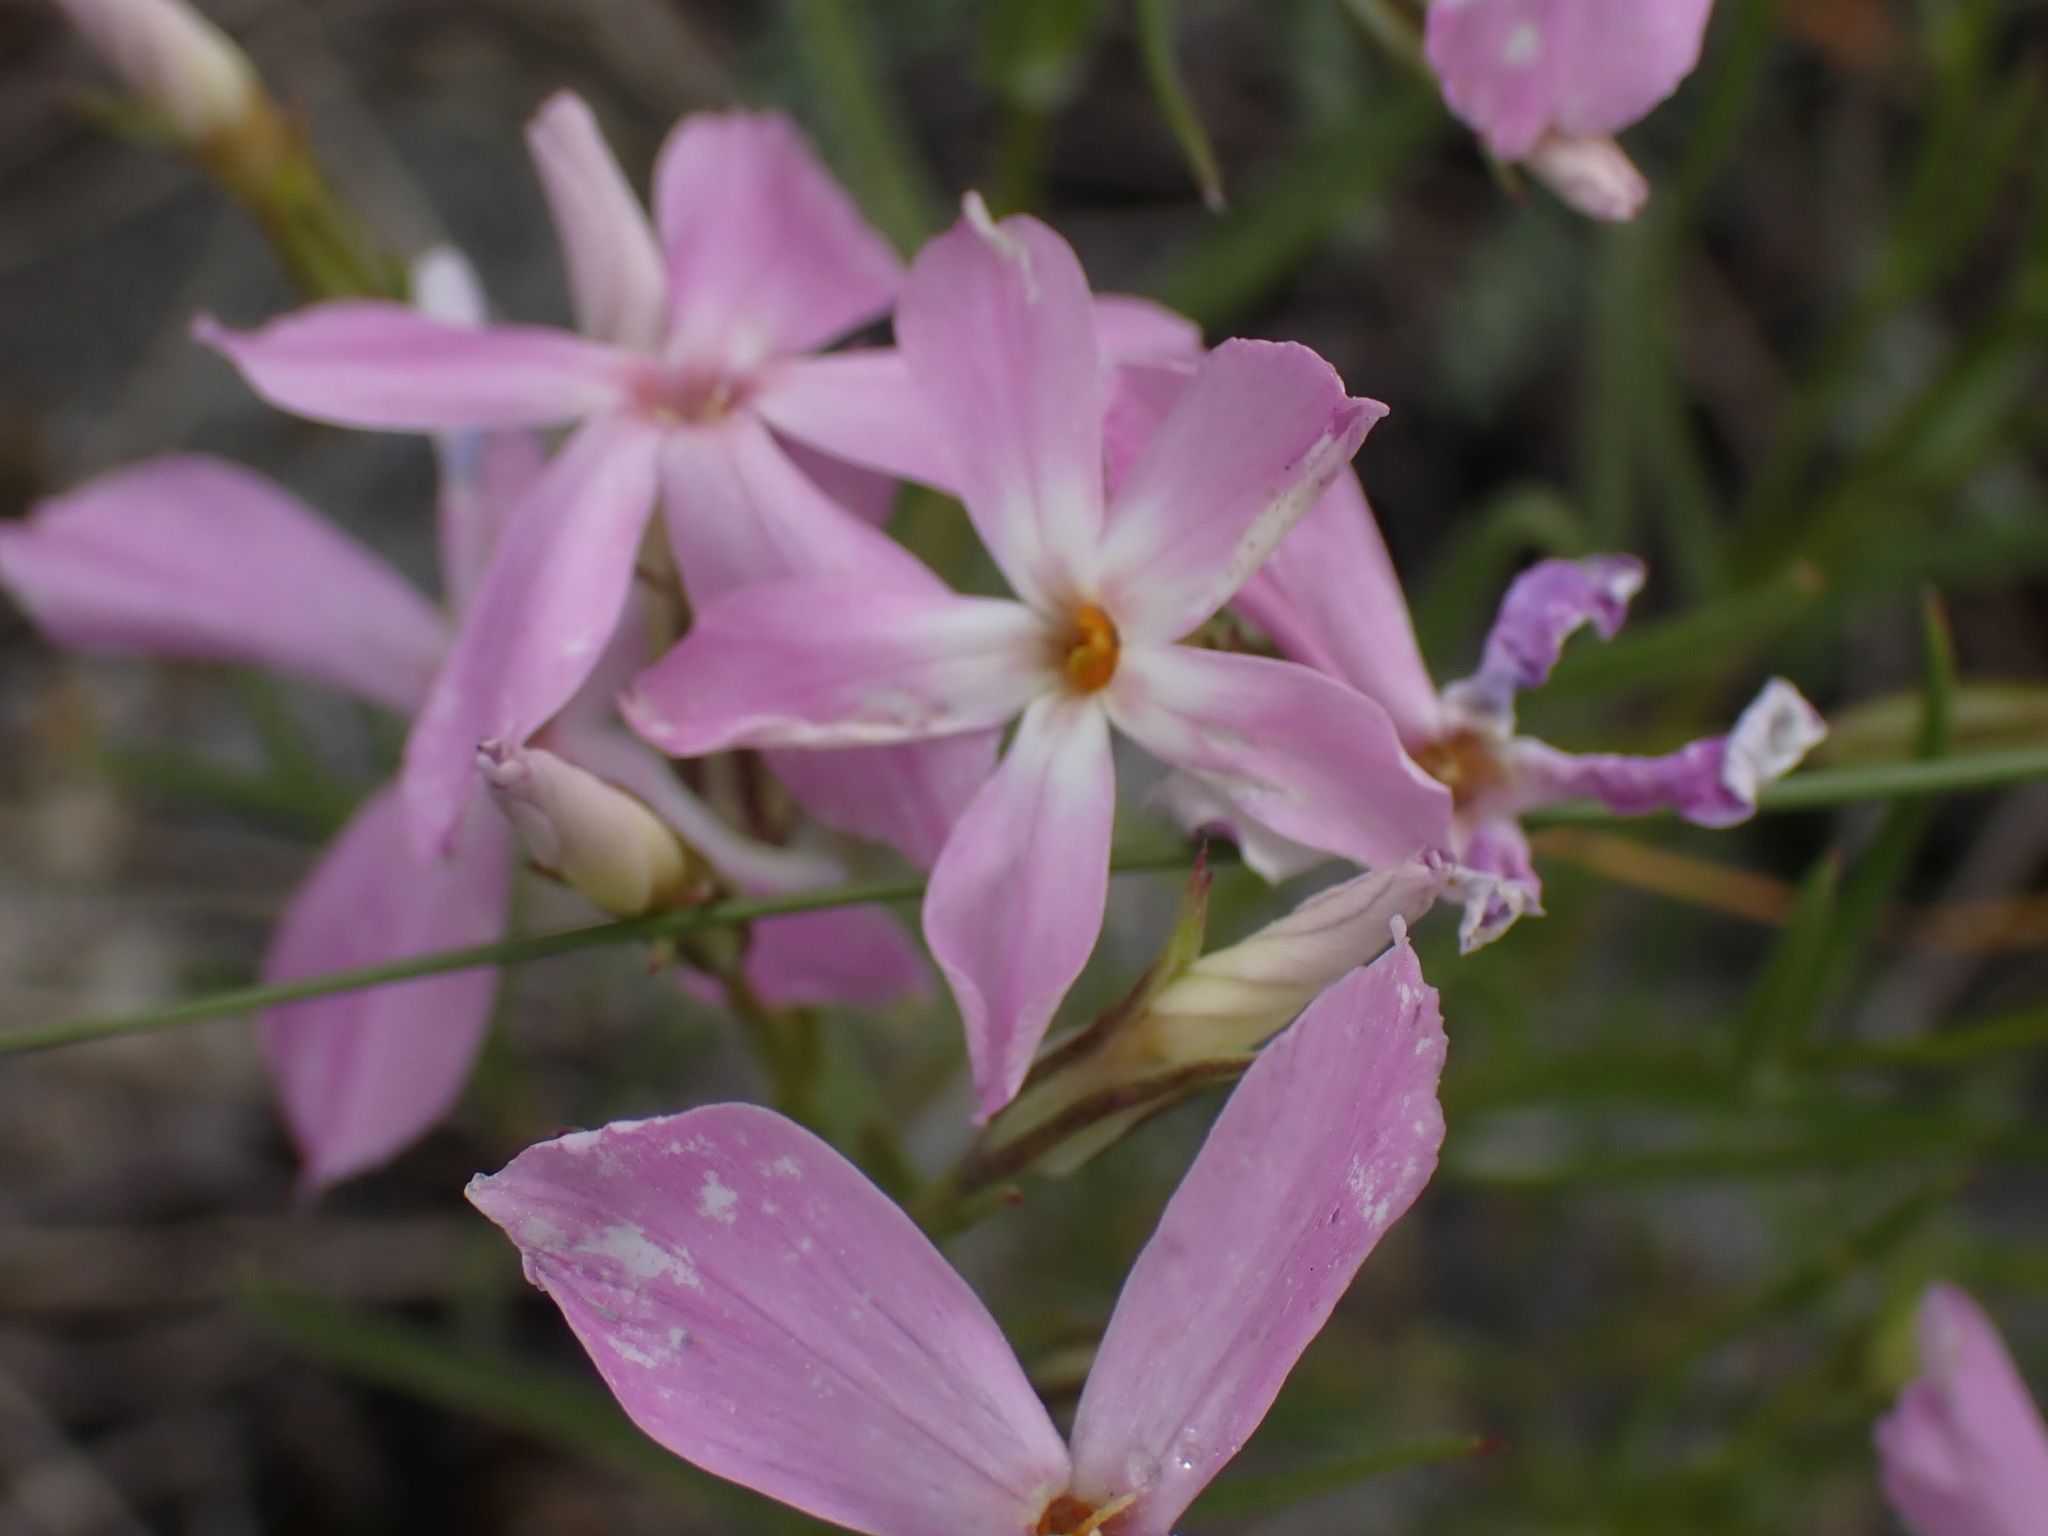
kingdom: Plantae
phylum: Tracheophyta
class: Magnoliopsida
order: Ericales
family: Polemoniaceae
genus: Phlox
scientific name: Phlox longifolia
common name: Longleaf phlox
